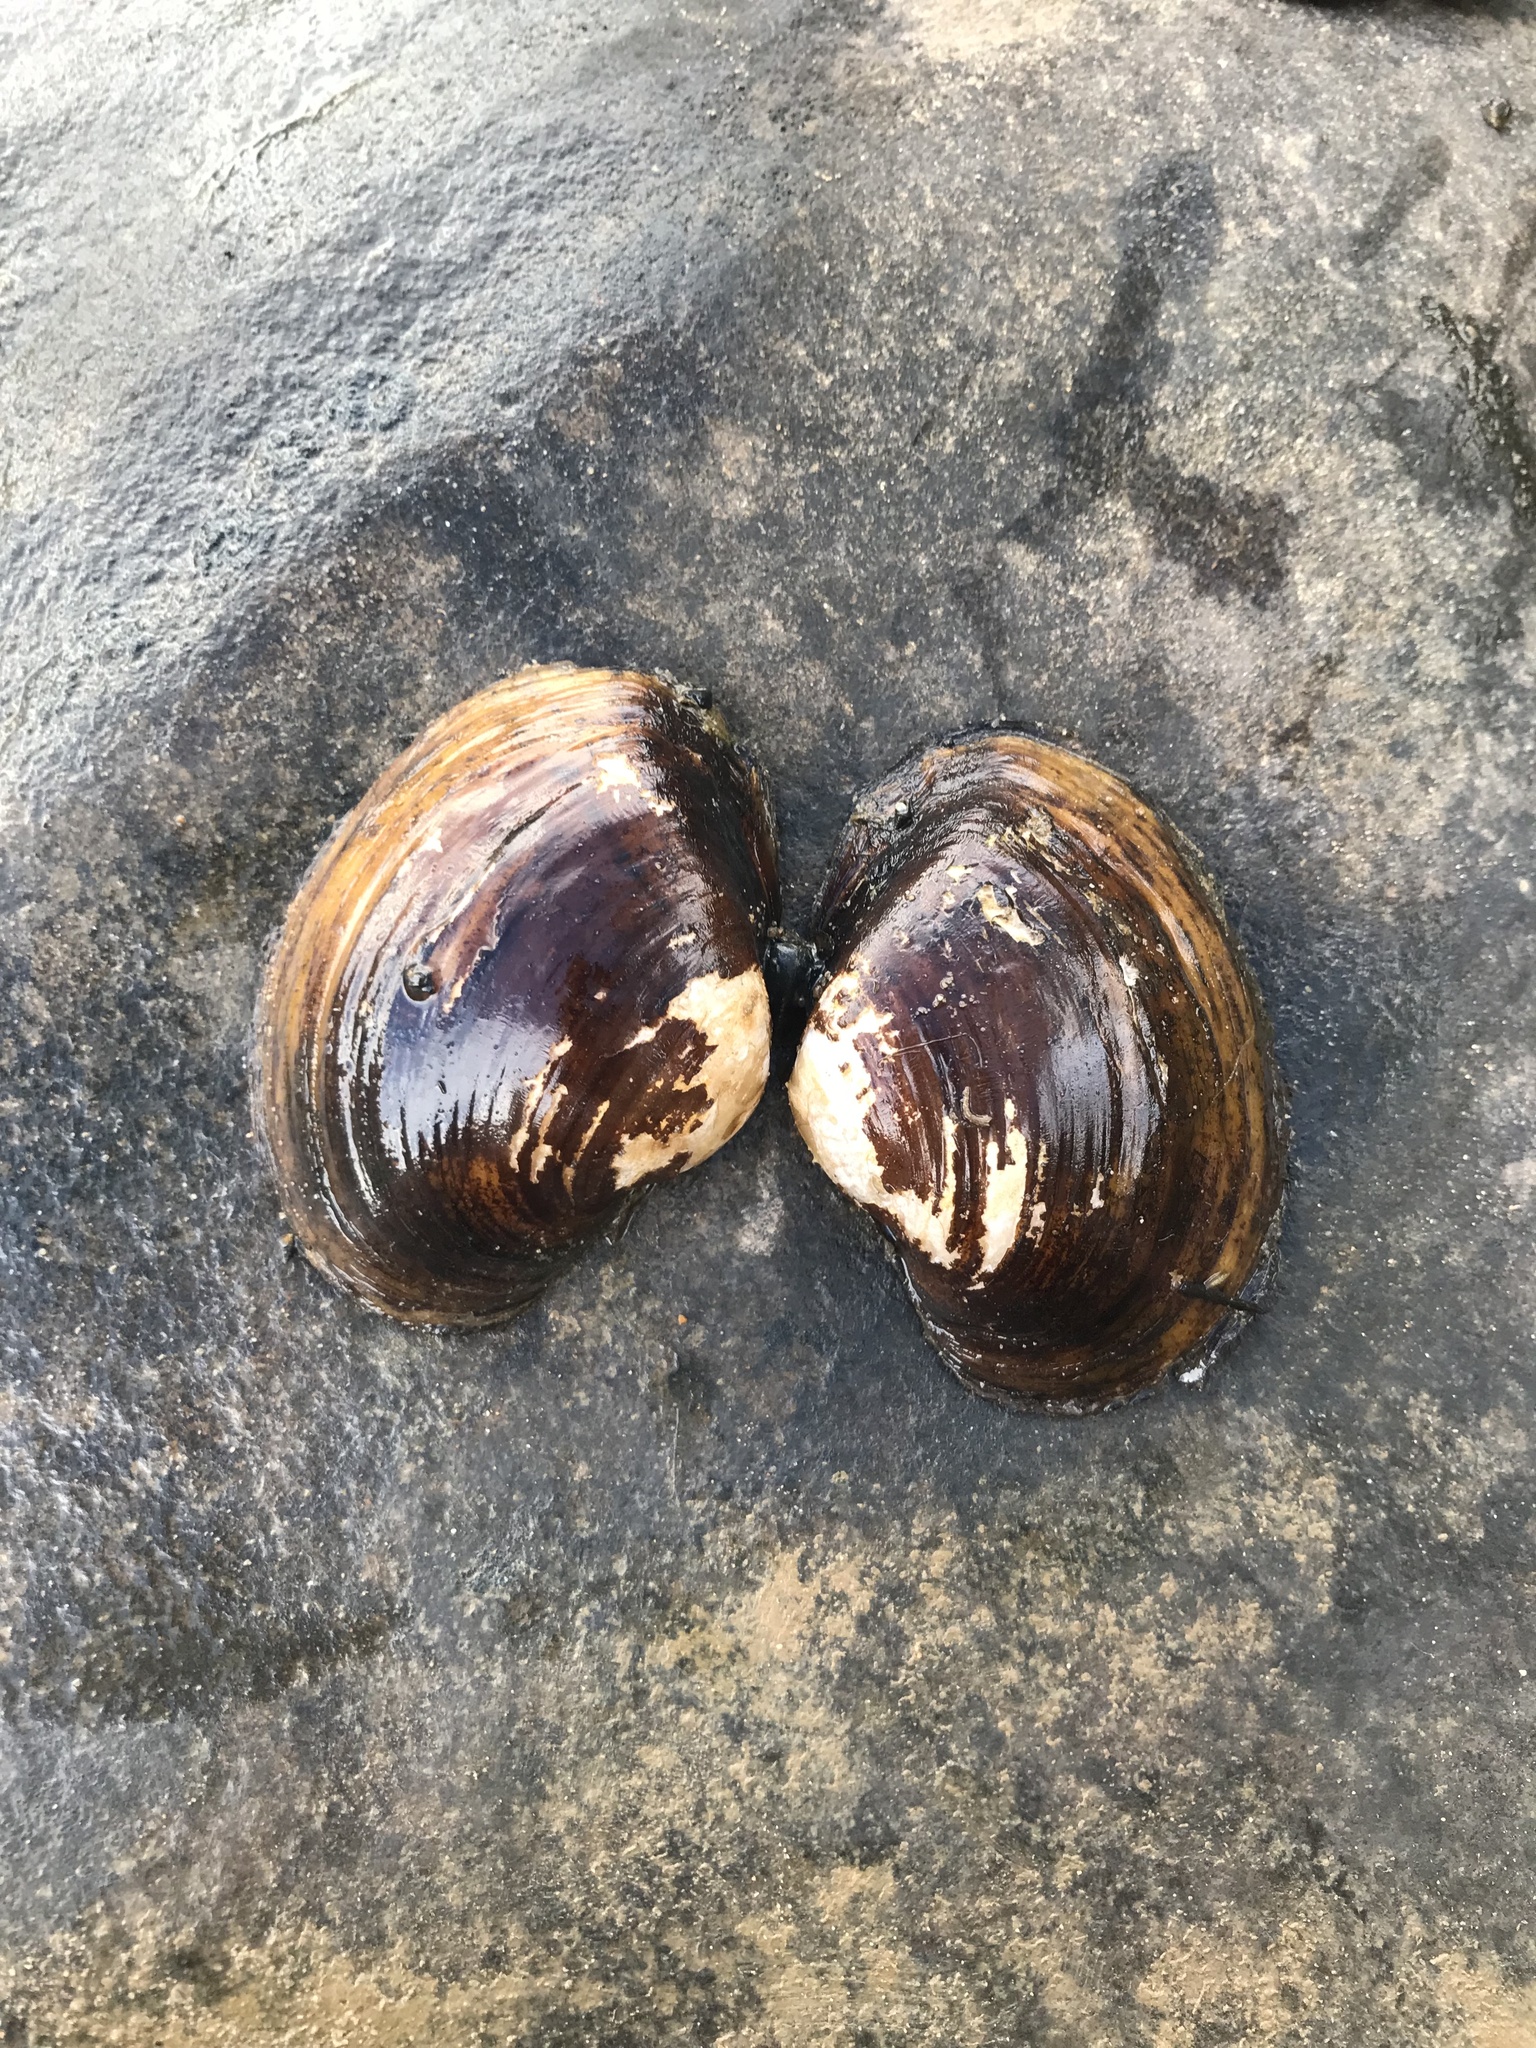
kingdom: Animalia
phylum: Mollusca
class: Bivalvia
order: Unionida
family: Unionidae
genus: Lampsilis
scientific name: Lampsilis ornata
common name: Southern pocketbook
